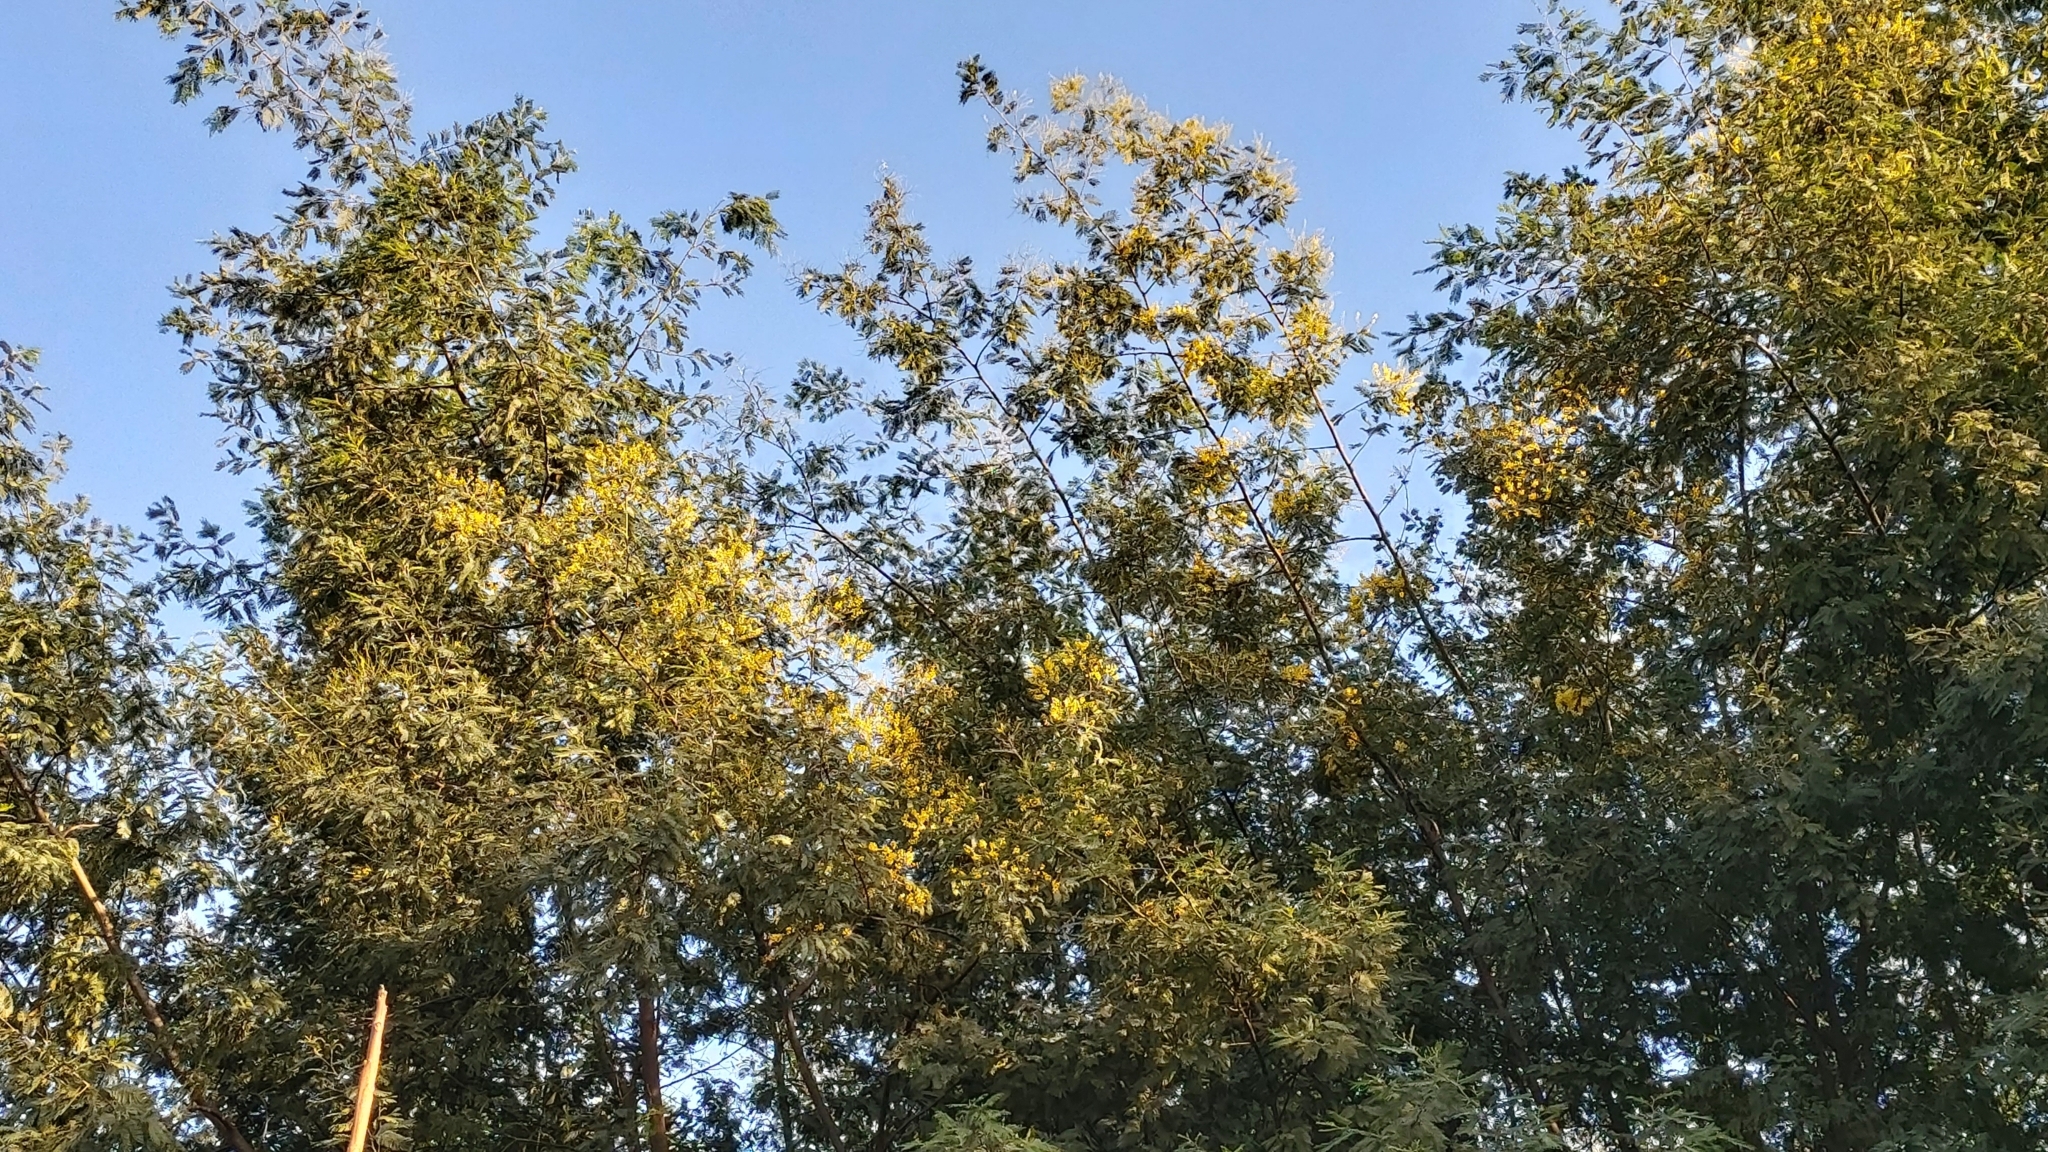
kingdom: Plantae
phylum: Tracheophyta
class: Magnoliopsida
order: Fabales
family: Fabaceae
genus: Acacia
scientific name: Acacia dealbata
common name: Silver wattle
